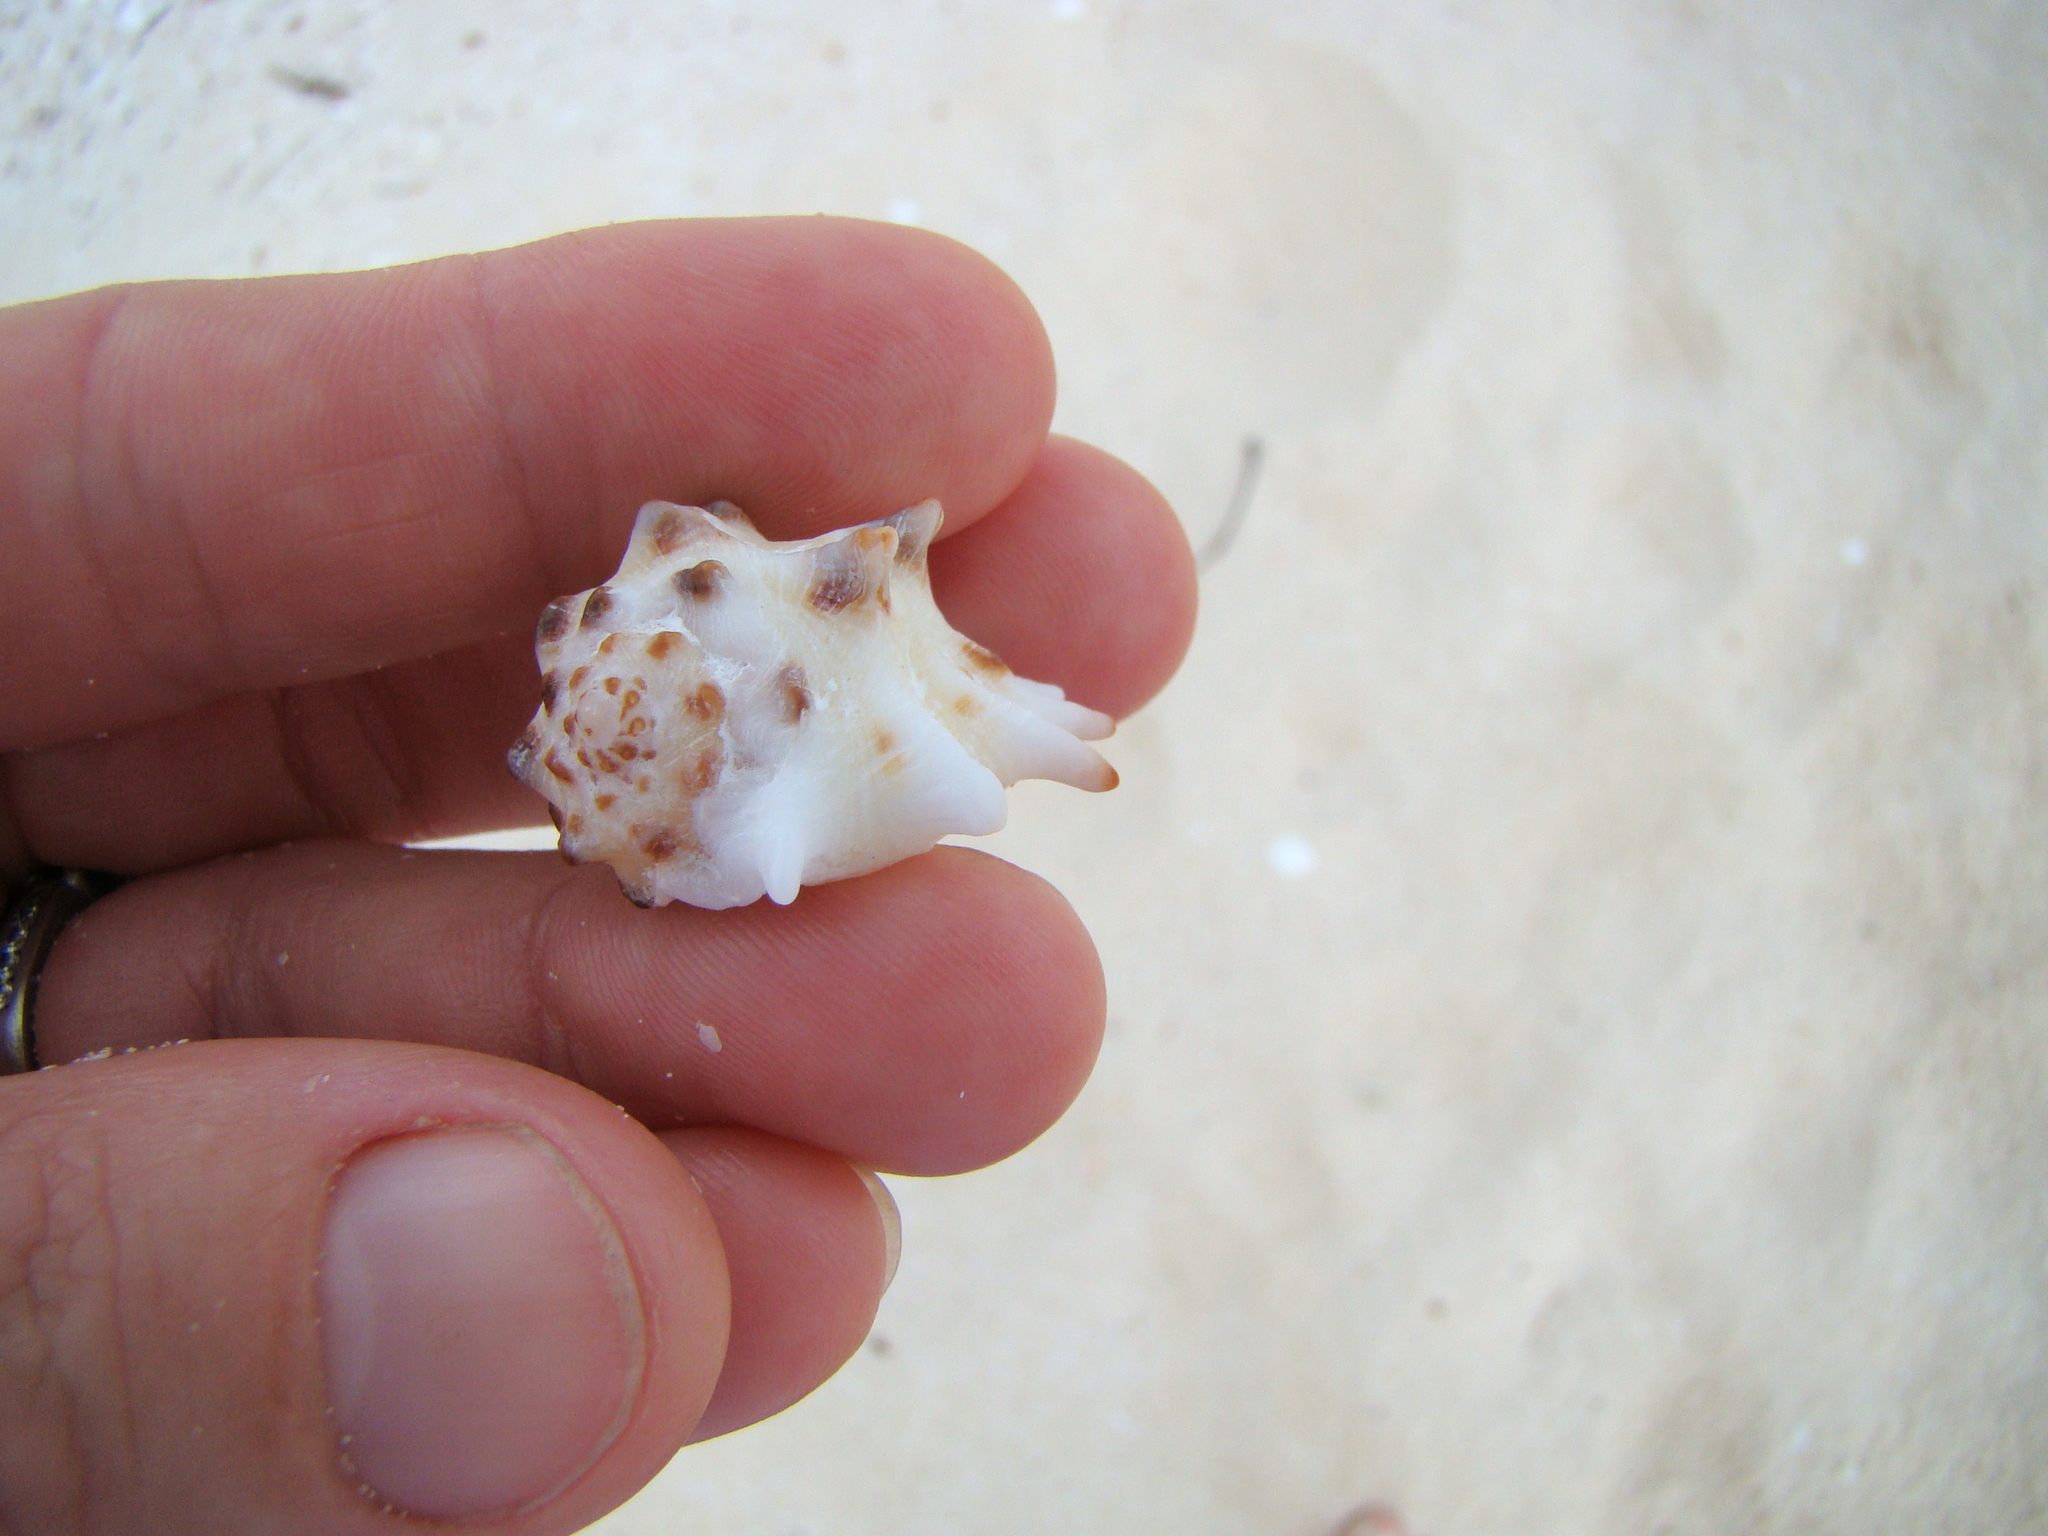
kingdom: Animalia
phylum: Mollusca
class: Gastropoda
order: Neogastropoda
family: Muricidae
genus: Drupa
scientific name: Drupa ricinus
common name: White-lipped castor bean
